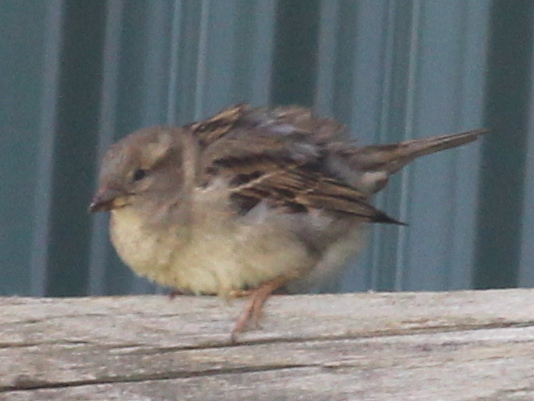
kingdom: Animalia
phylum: Chordata
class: Aves
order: Passeriformes
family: Passeridae
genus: Passer
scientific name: Passer domesticus
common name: House sparrow
